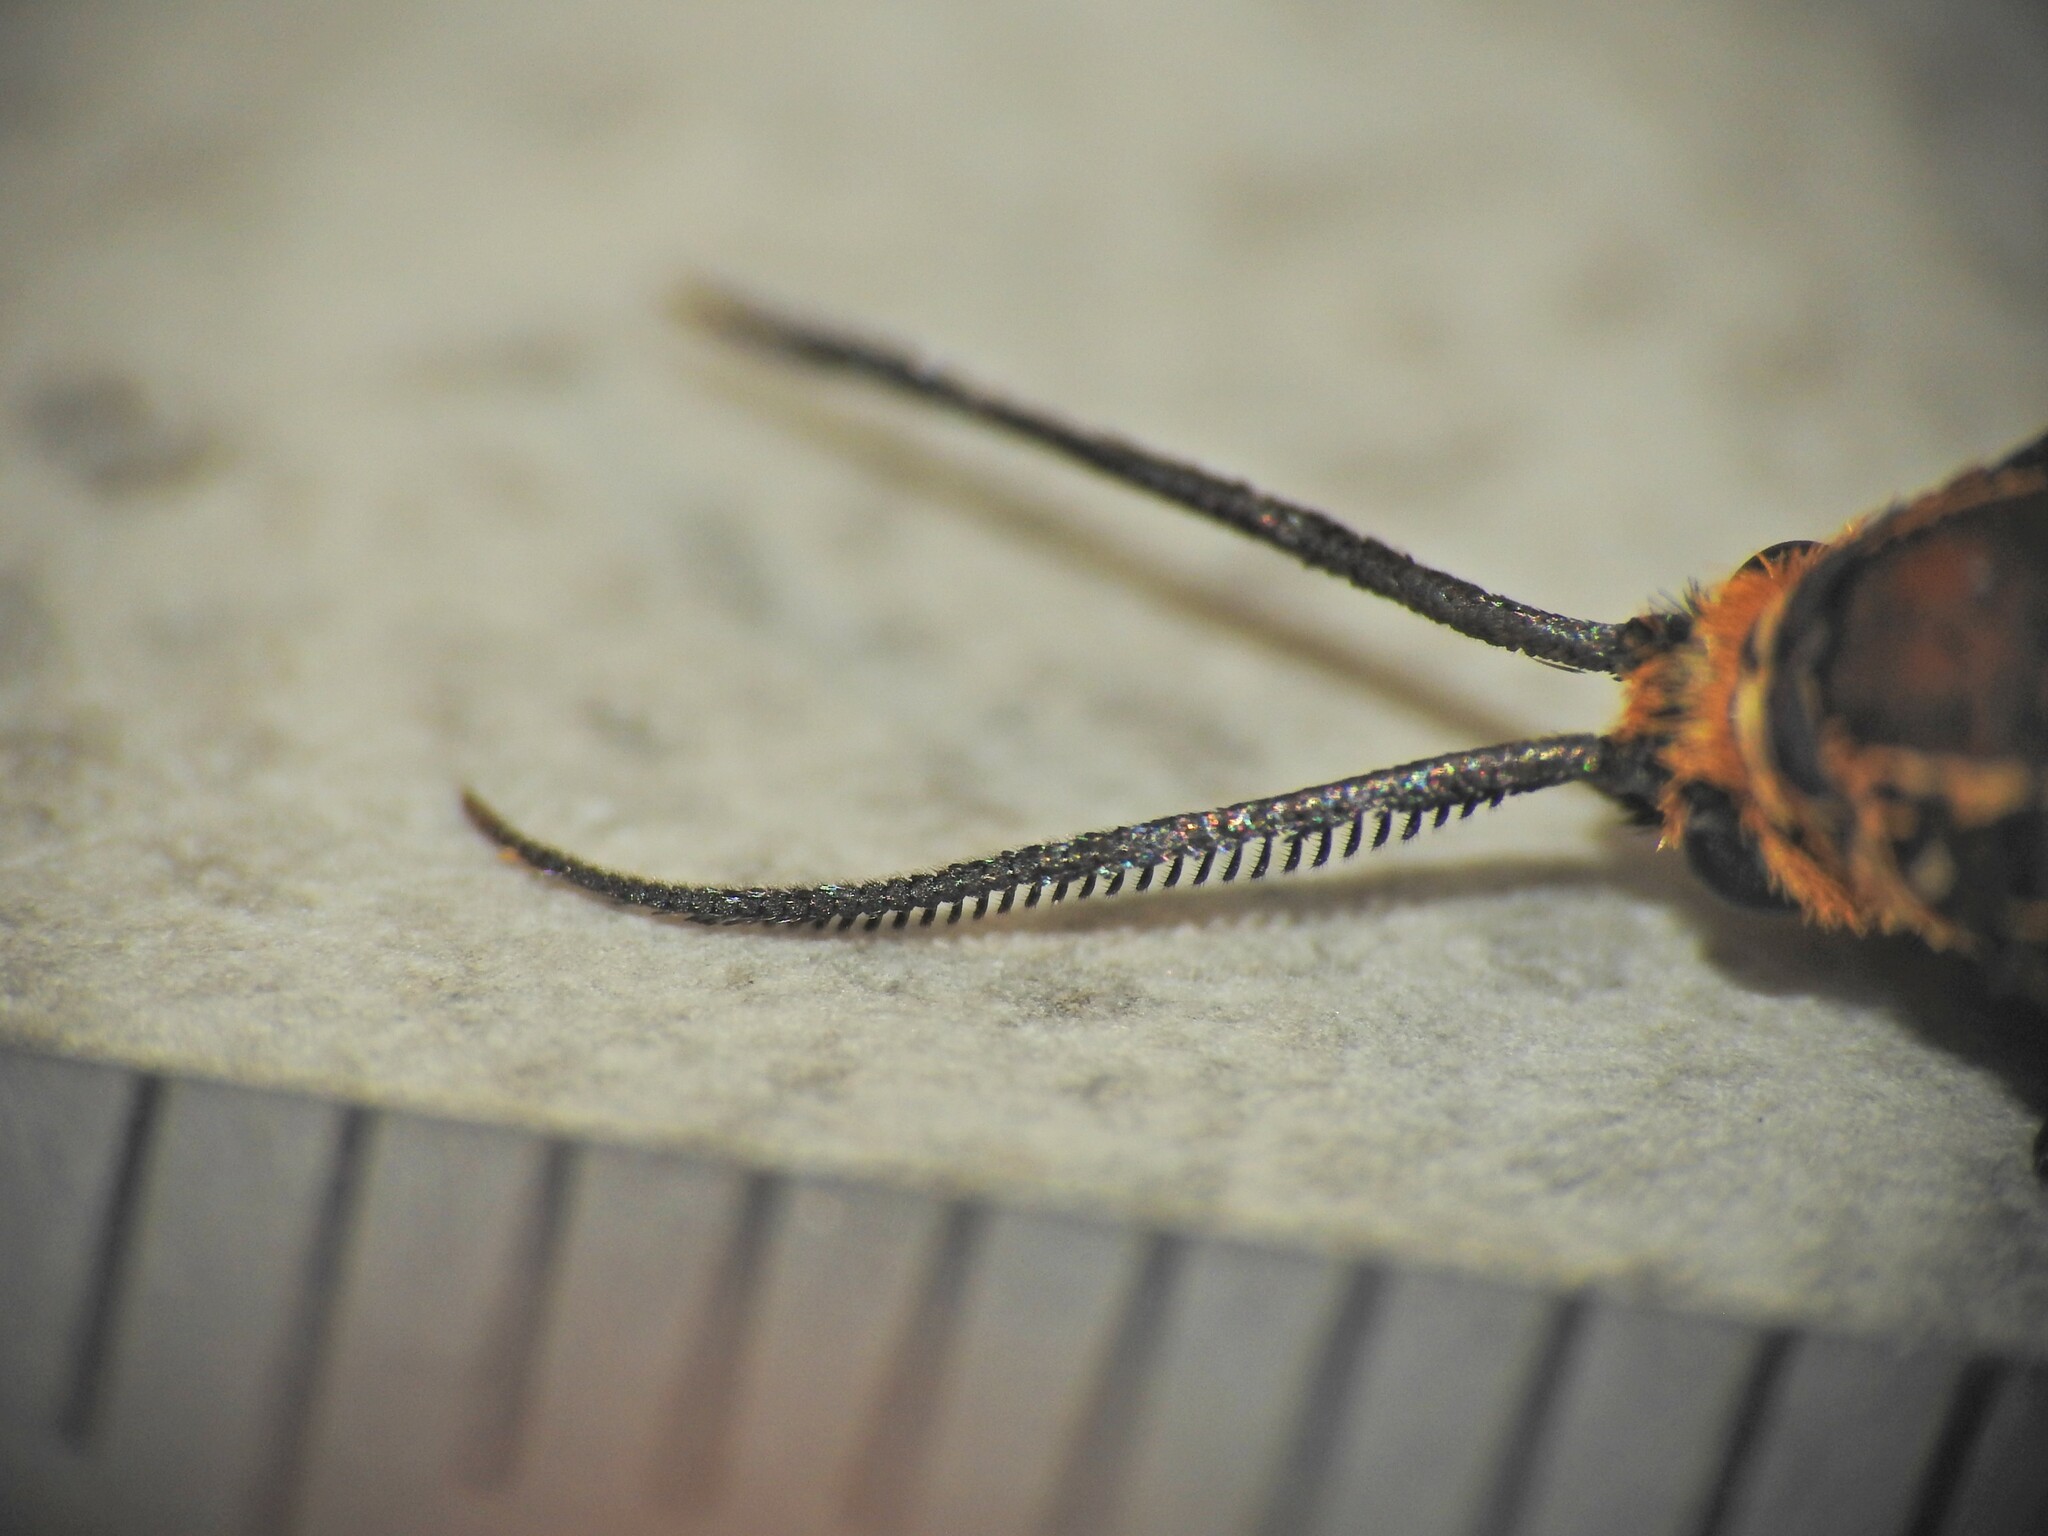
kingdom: Animalia
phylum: Arthropoda
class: Insecta
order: Lepidoptera
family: Brachodidae
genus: Miscera
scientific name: Miscera homotona
